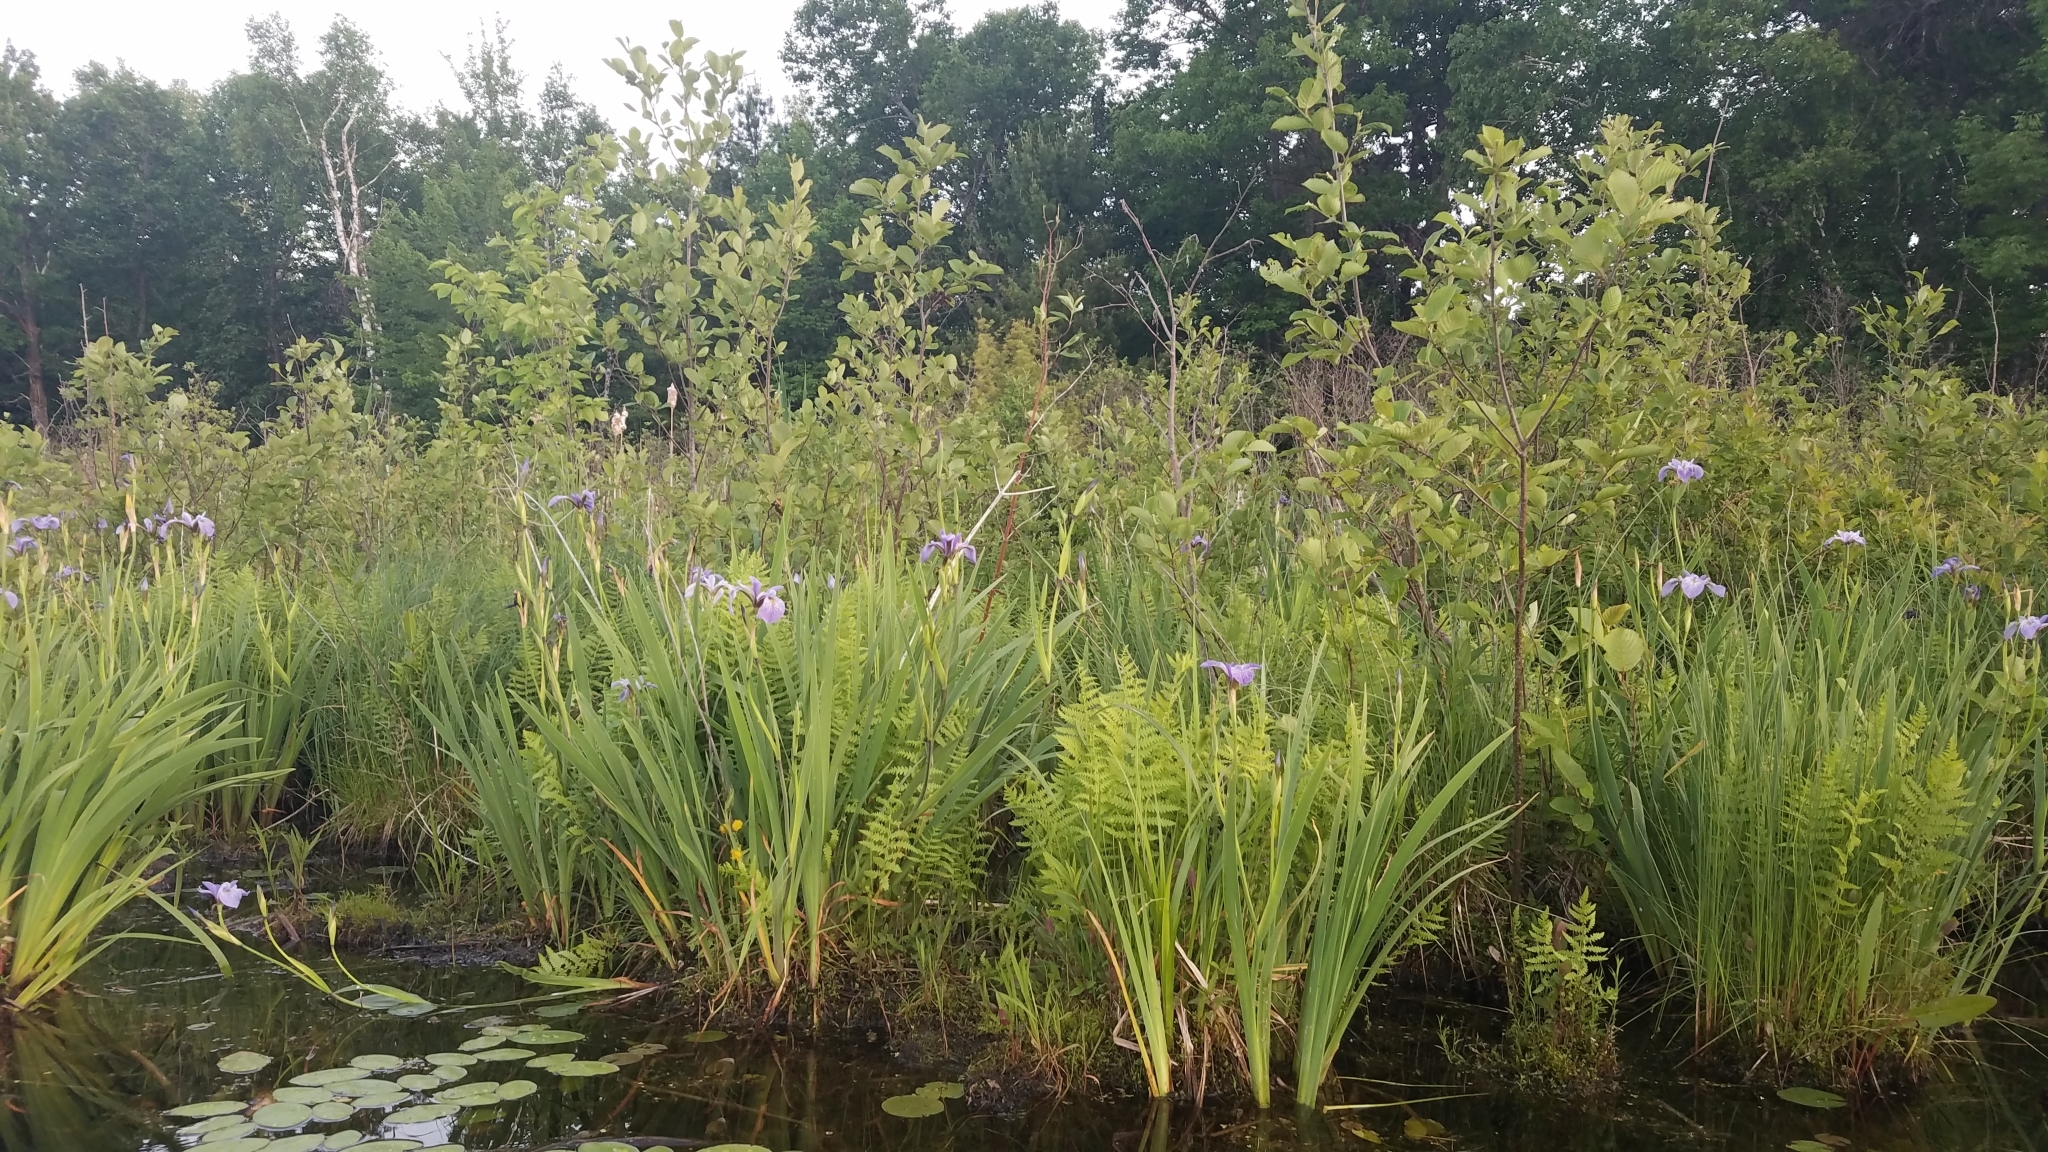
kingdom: Plantae
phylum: Tracheophyta
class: Liliopsida
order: Asparagales
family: Iridaceae
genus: Iris
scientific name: Iris versicolor
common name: Purple iris
